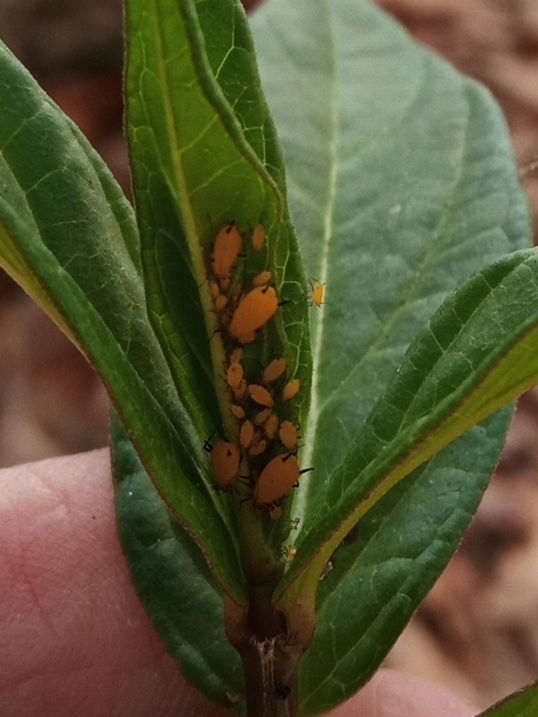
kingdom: Animalia
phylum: Arthropoda
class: Insecta
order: Hemiptera
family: Aphididae
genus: Aphis
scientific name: Aphis nerii
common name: Oleander aphid
